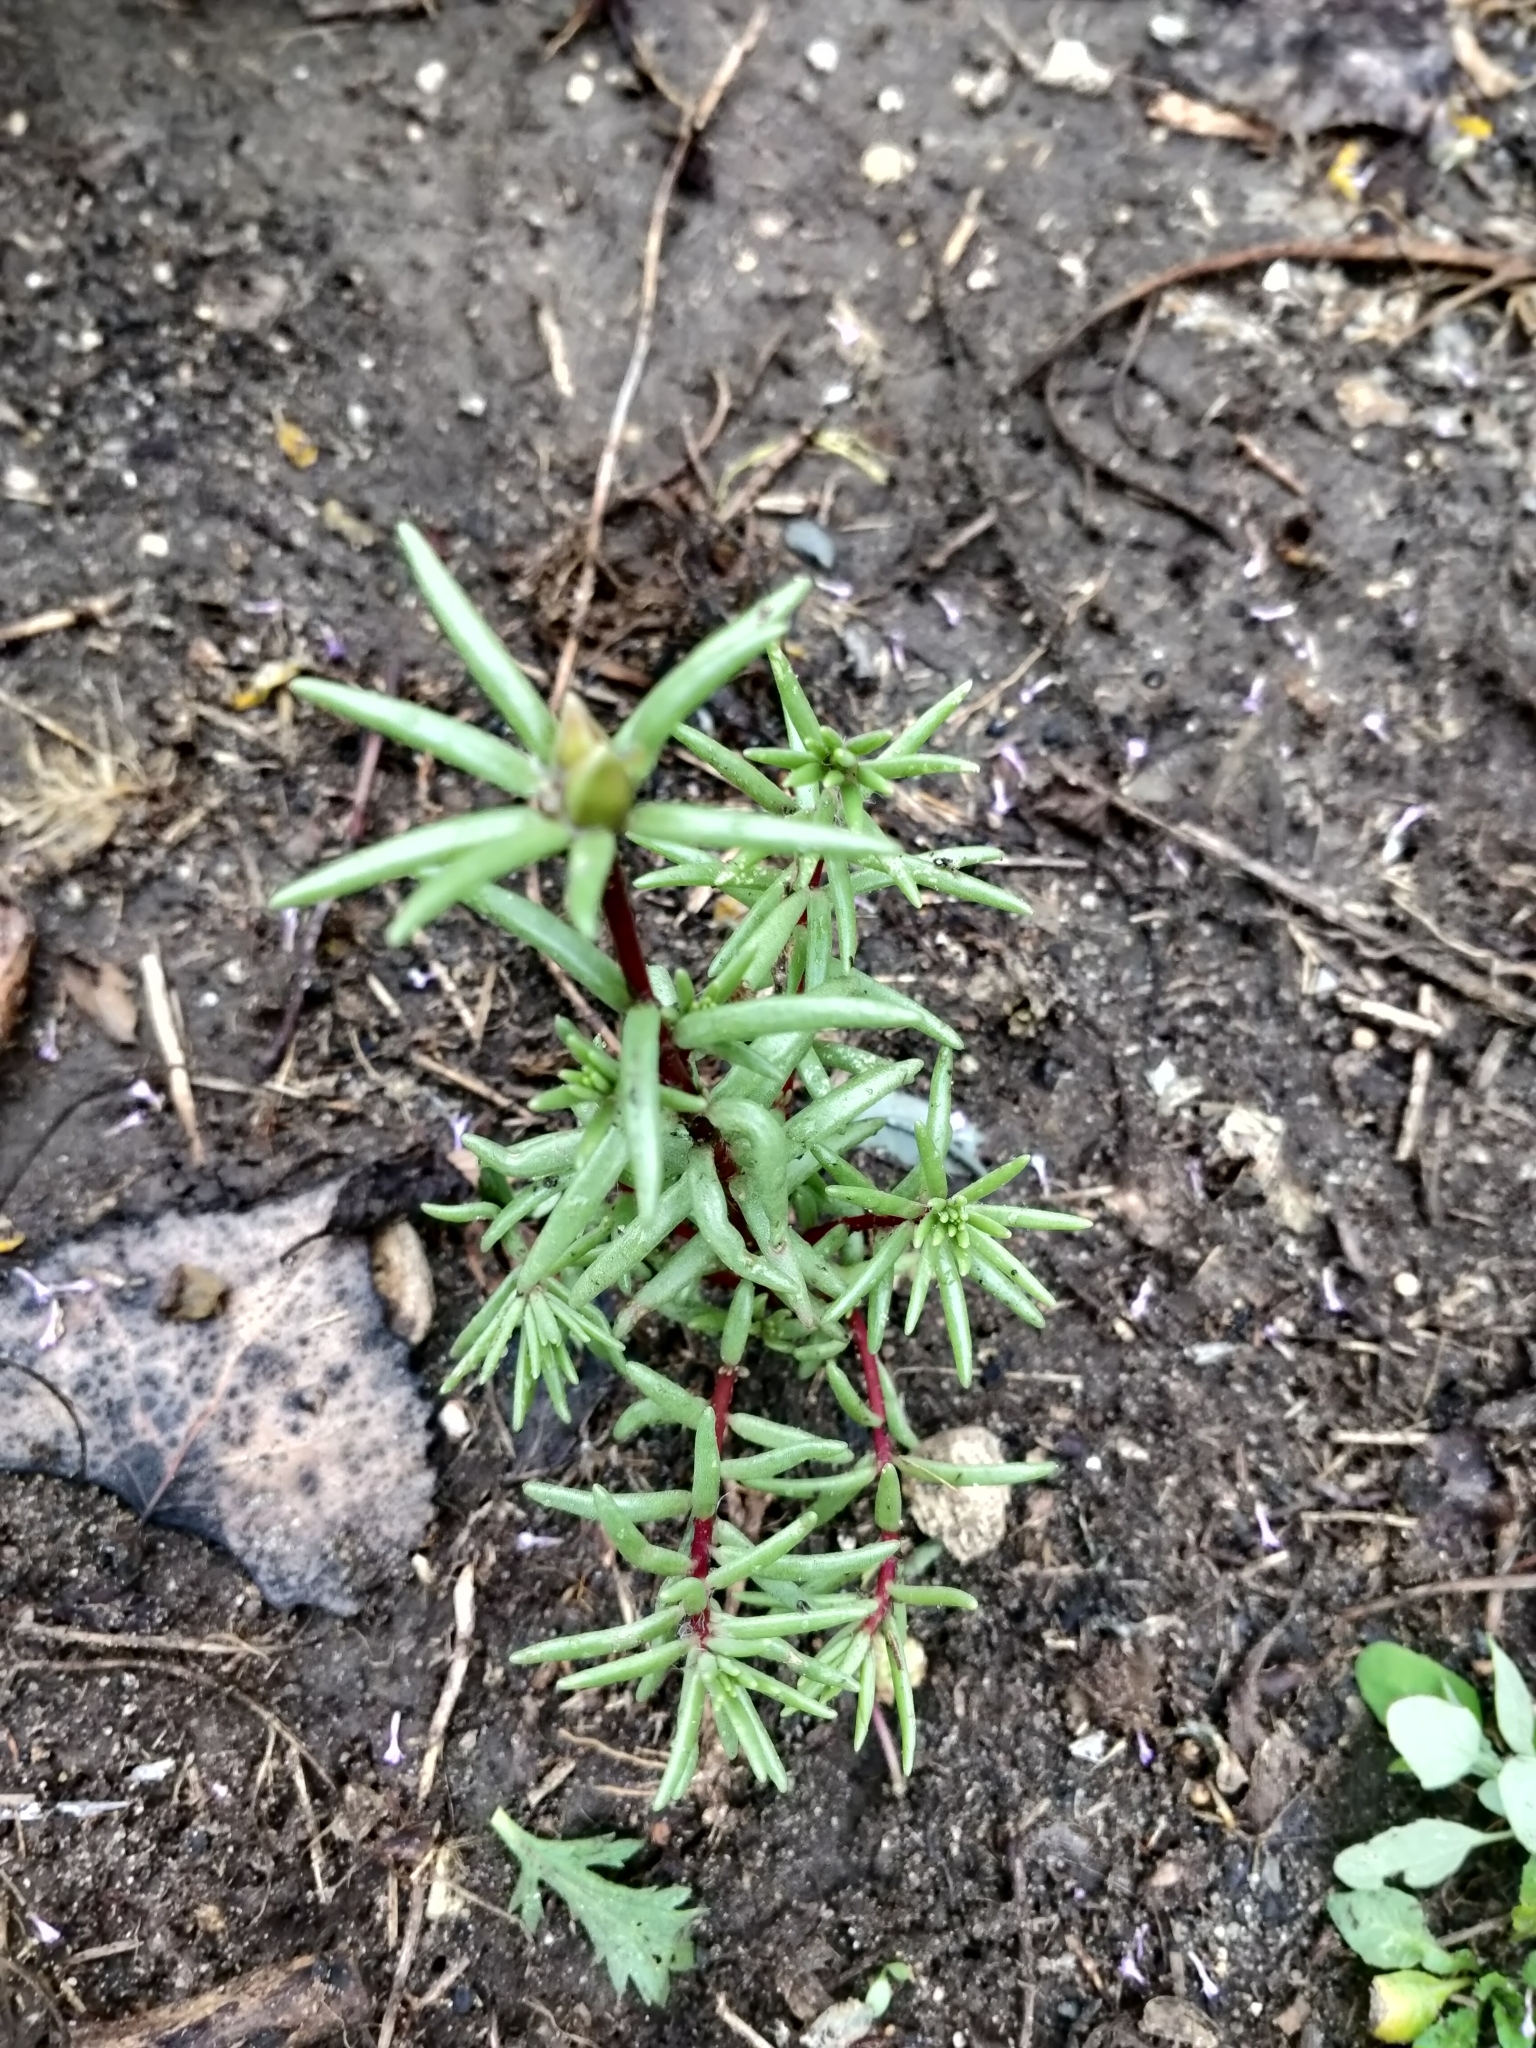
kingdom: Plantae
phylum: Tracheophyta
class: Magnoliopsida
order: Caryophyllales
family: Portulacaceae
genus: Portulaca
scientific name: Portulaca grandiflora
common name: Moss-rose
